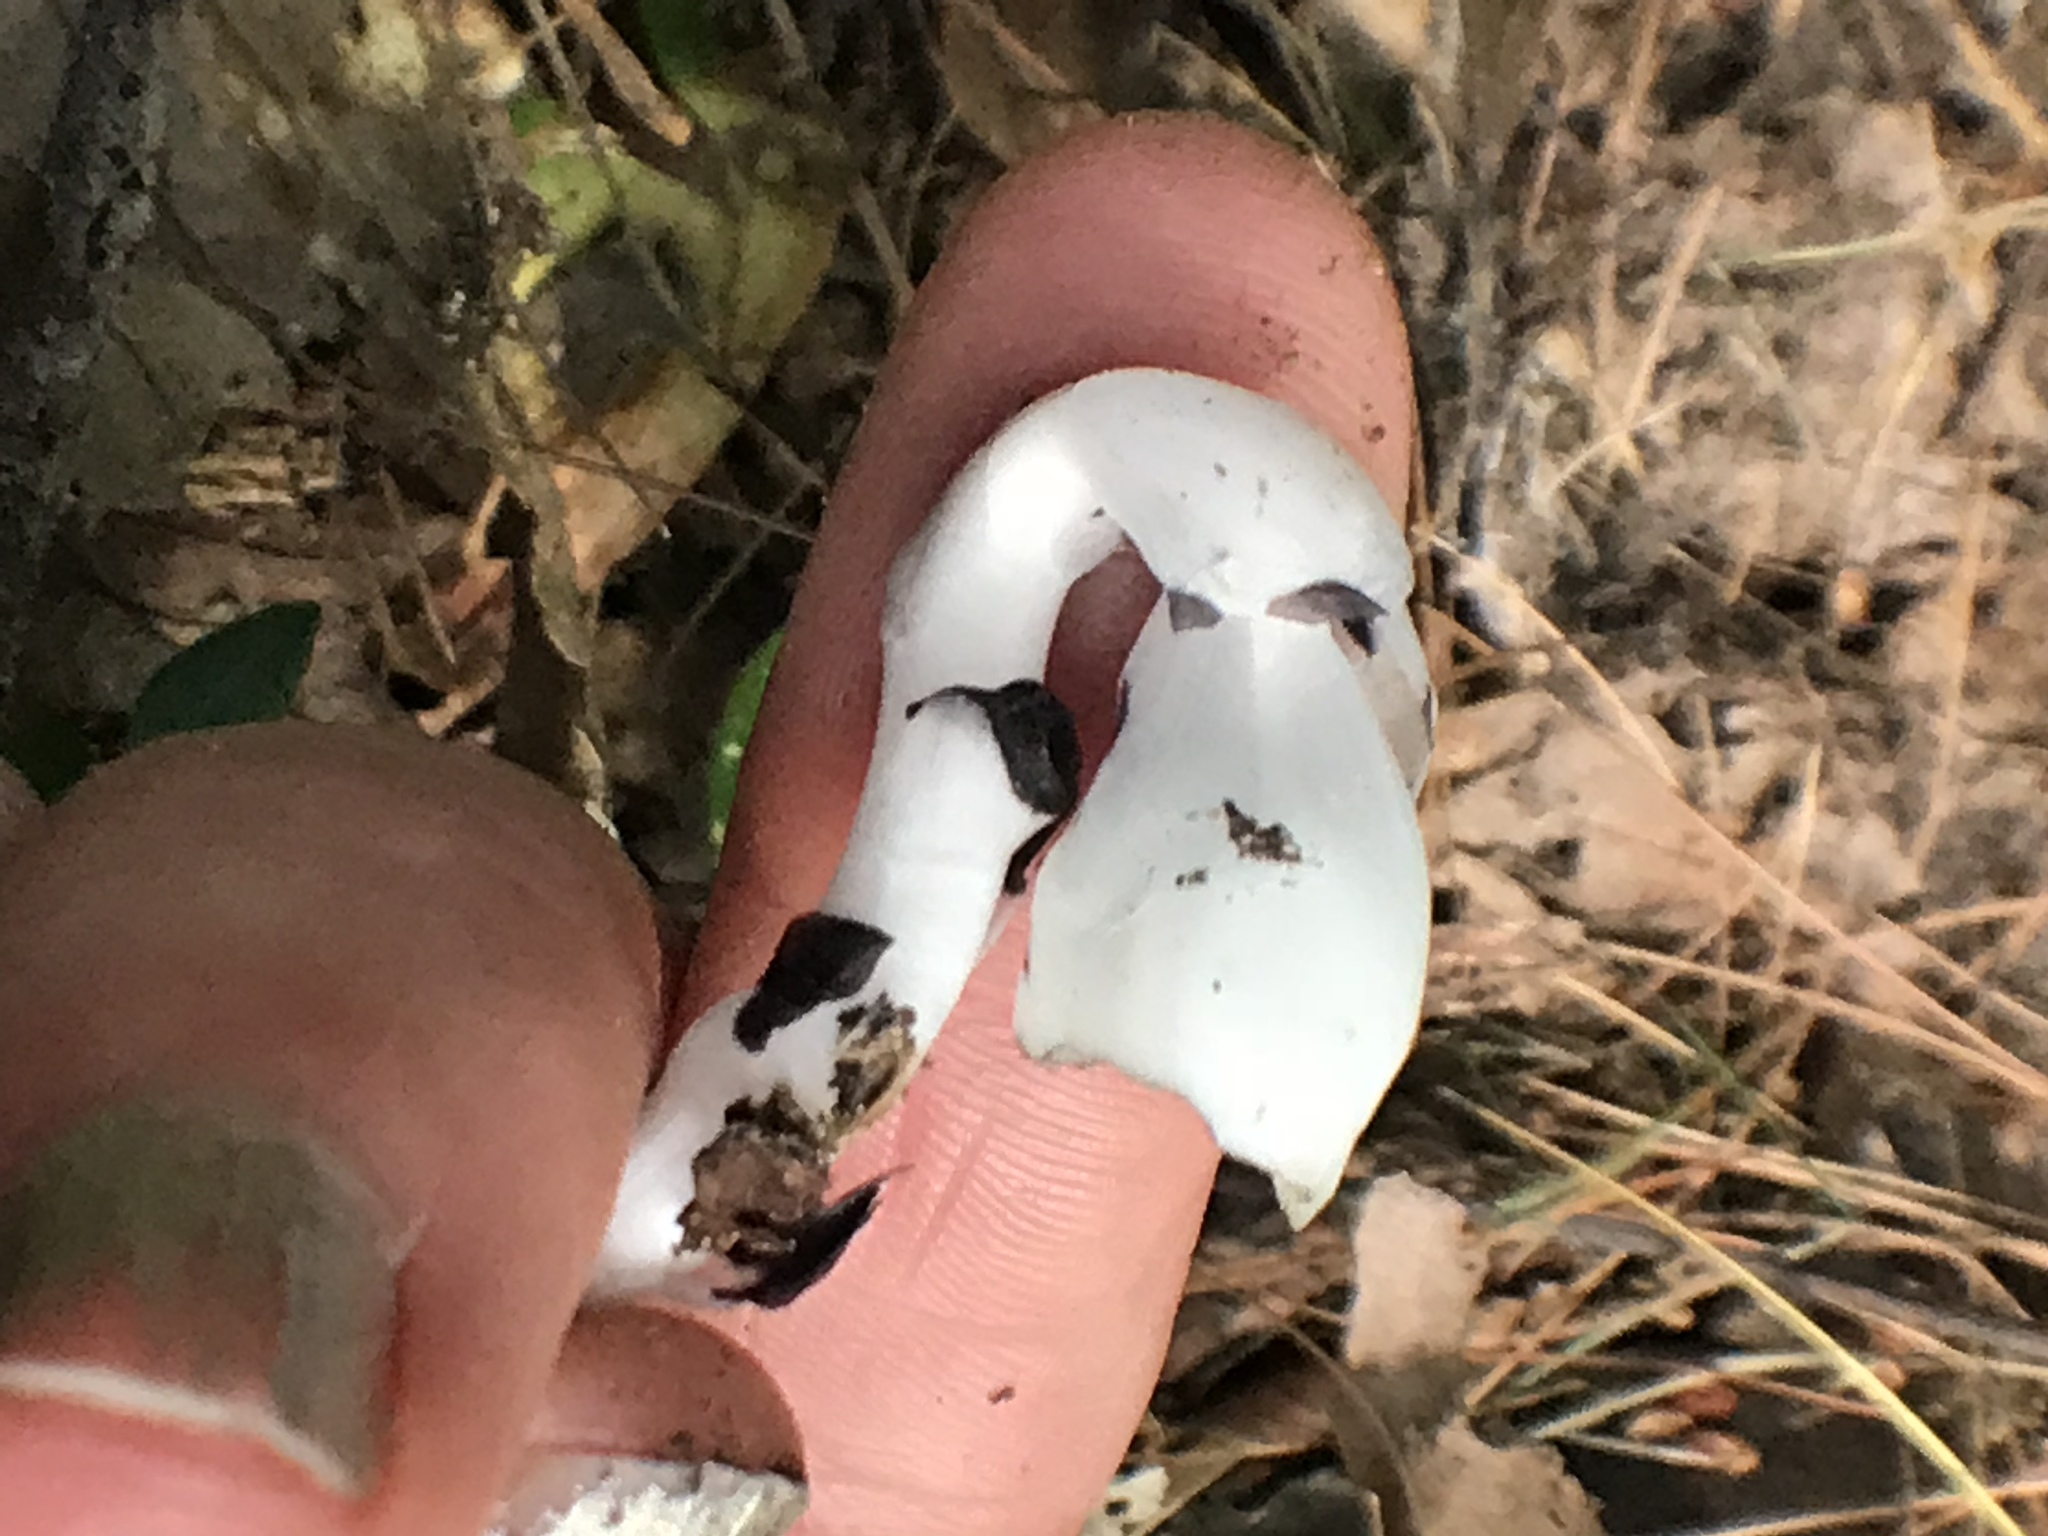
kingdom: Plantae
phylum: Tracheophyta
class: Magnoliopsida
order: Ericales
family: Ericaceae
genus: Monotropa
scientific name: Monotropa uniflora
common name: Convulsion root
